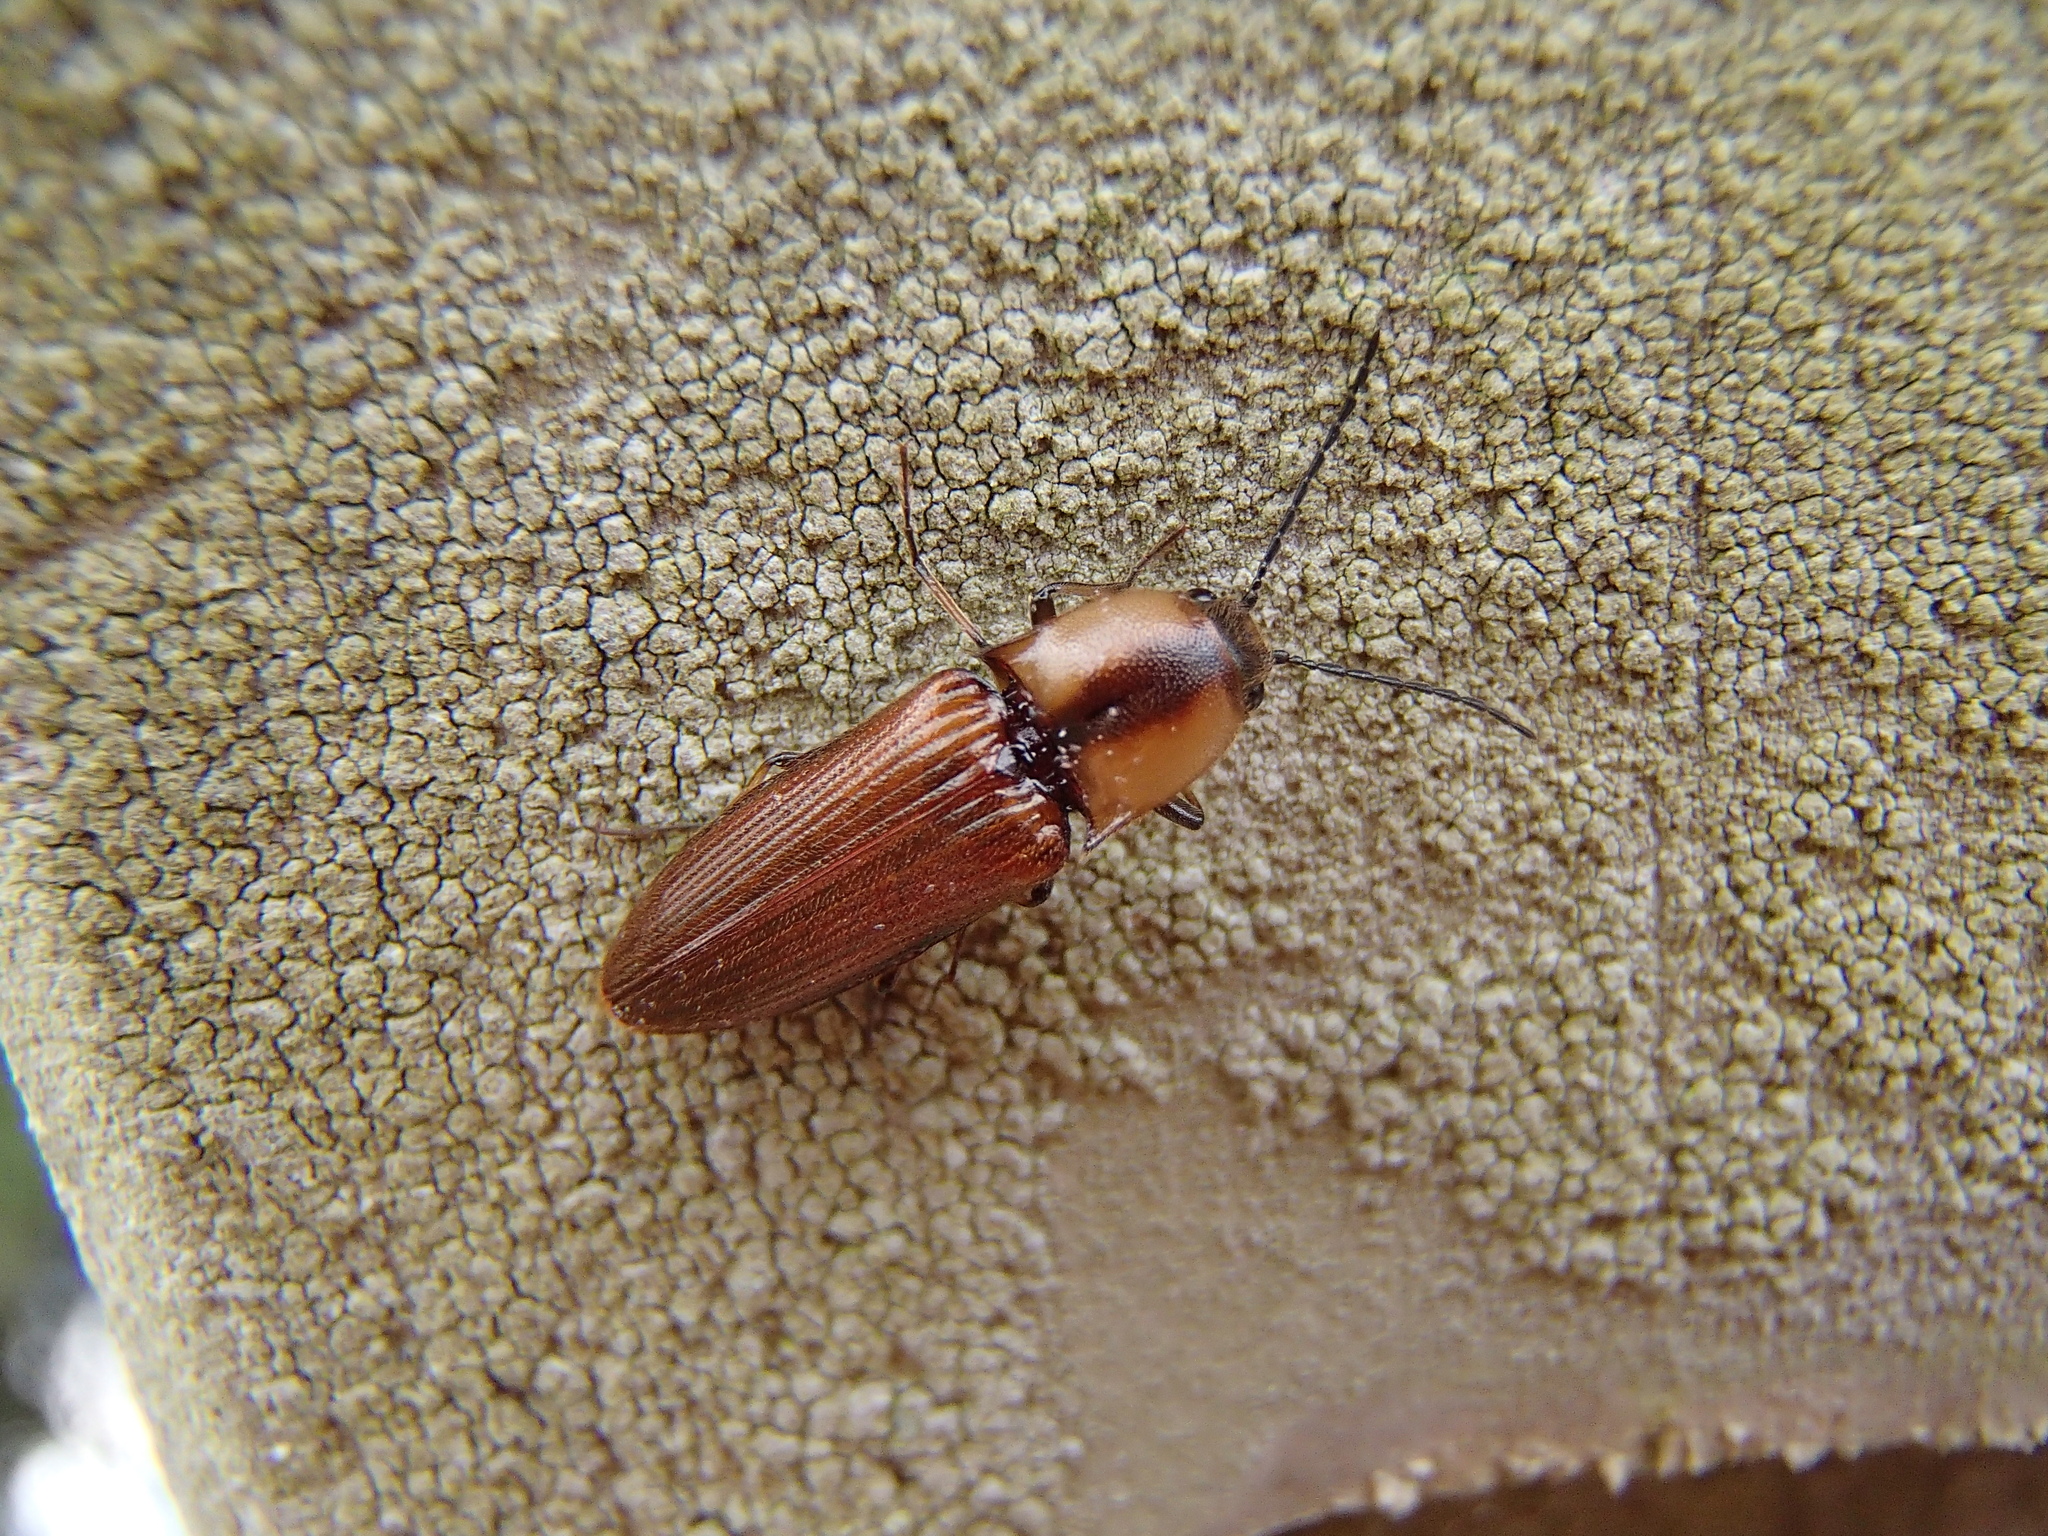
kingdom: Animalia
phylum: Arthropoda
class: Insecta
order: Coleoptera
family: Elateridae
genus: Sphaenelater
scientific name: Sphaenelater
